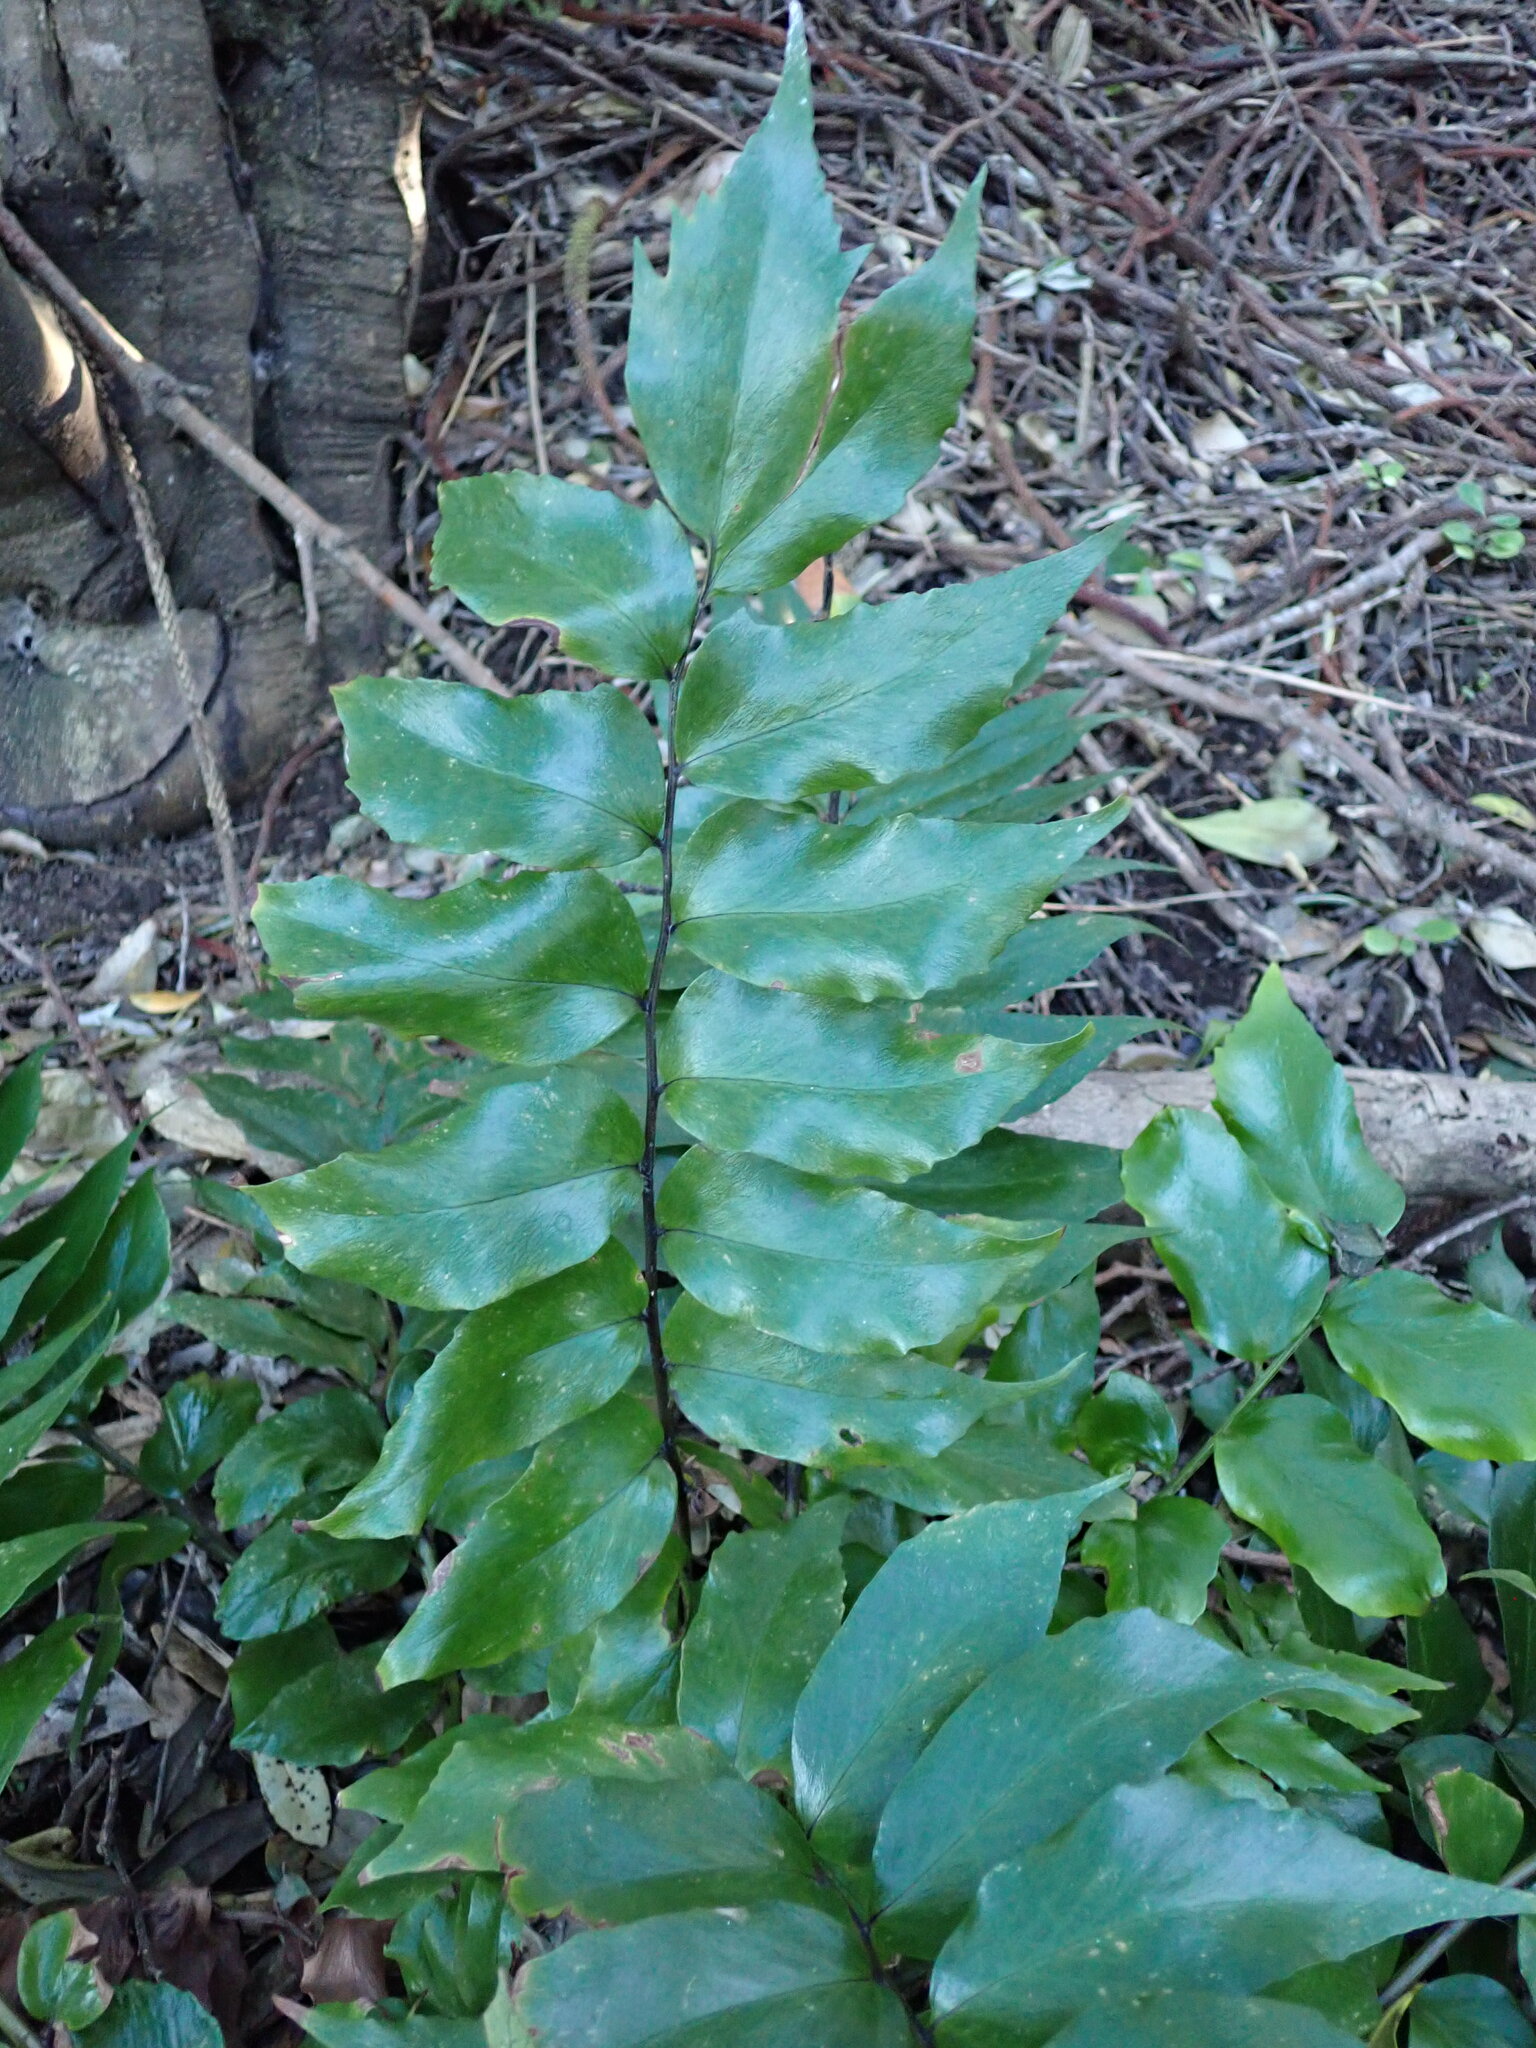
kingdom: Plantae
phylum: Tracheophyta
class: Polypodiopsida
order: Polypodiales
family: Dryopteridaceae
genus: Cyrtomium
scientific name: Cyrtomium falcatum
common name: House holly-fern
